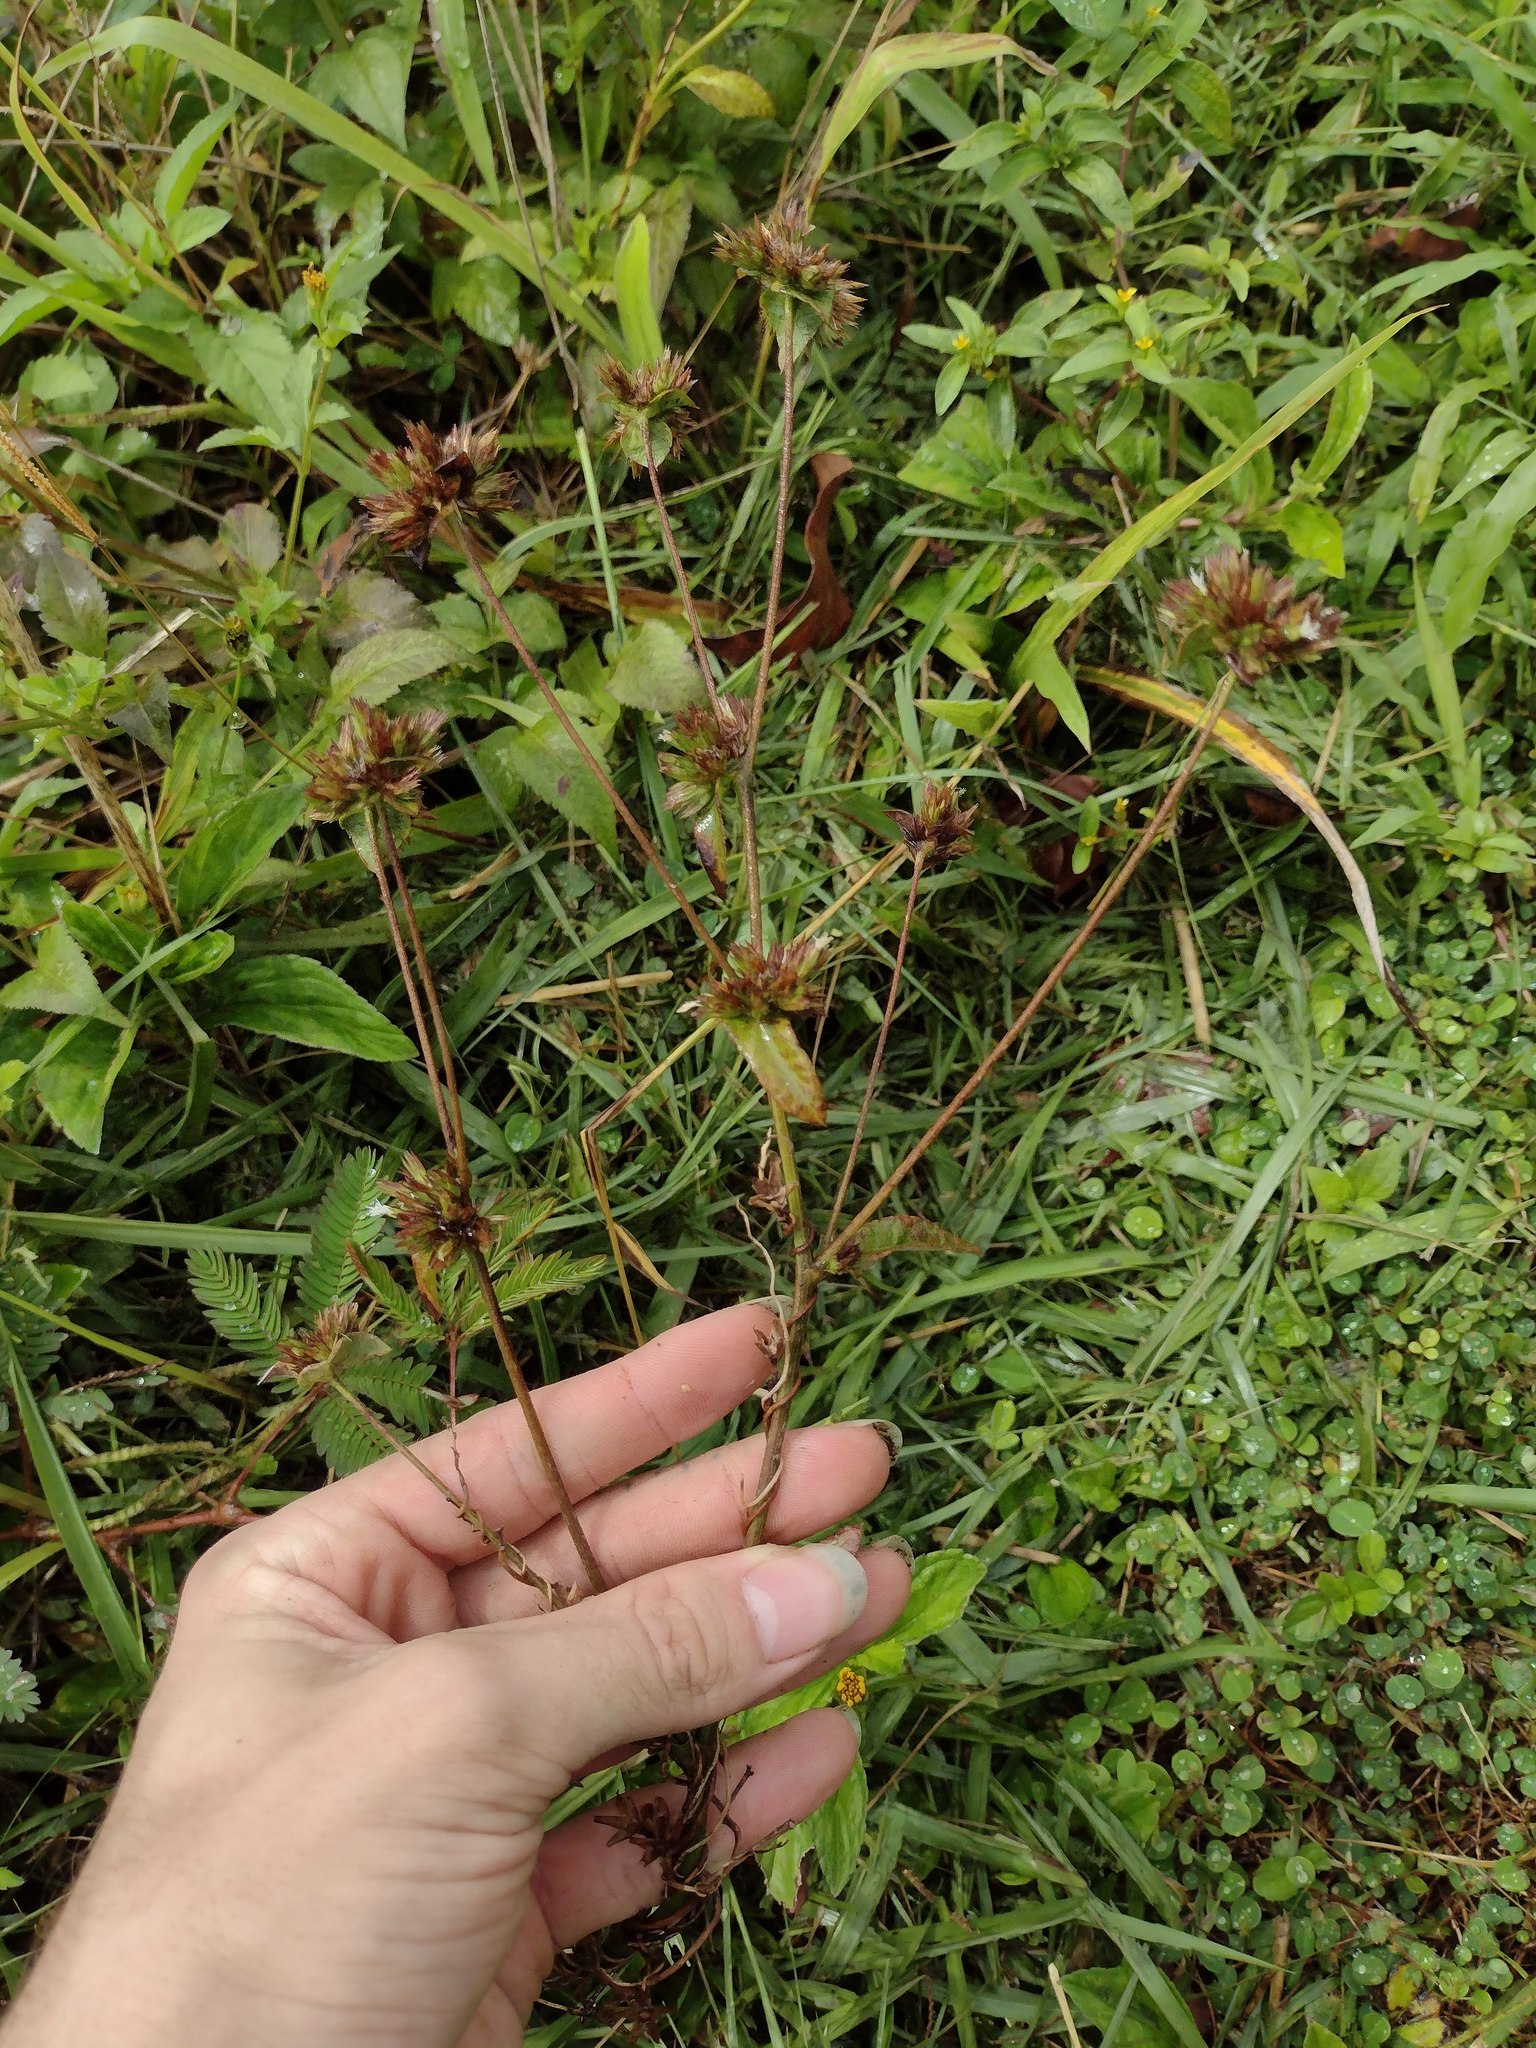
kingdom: Plantae
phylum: Tracheophyta
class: Magnoliopsida
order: Asterales
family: Asteraceae
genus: Elephantopus
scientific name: Elephantopus mollis
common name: Soft elephantsfoot
